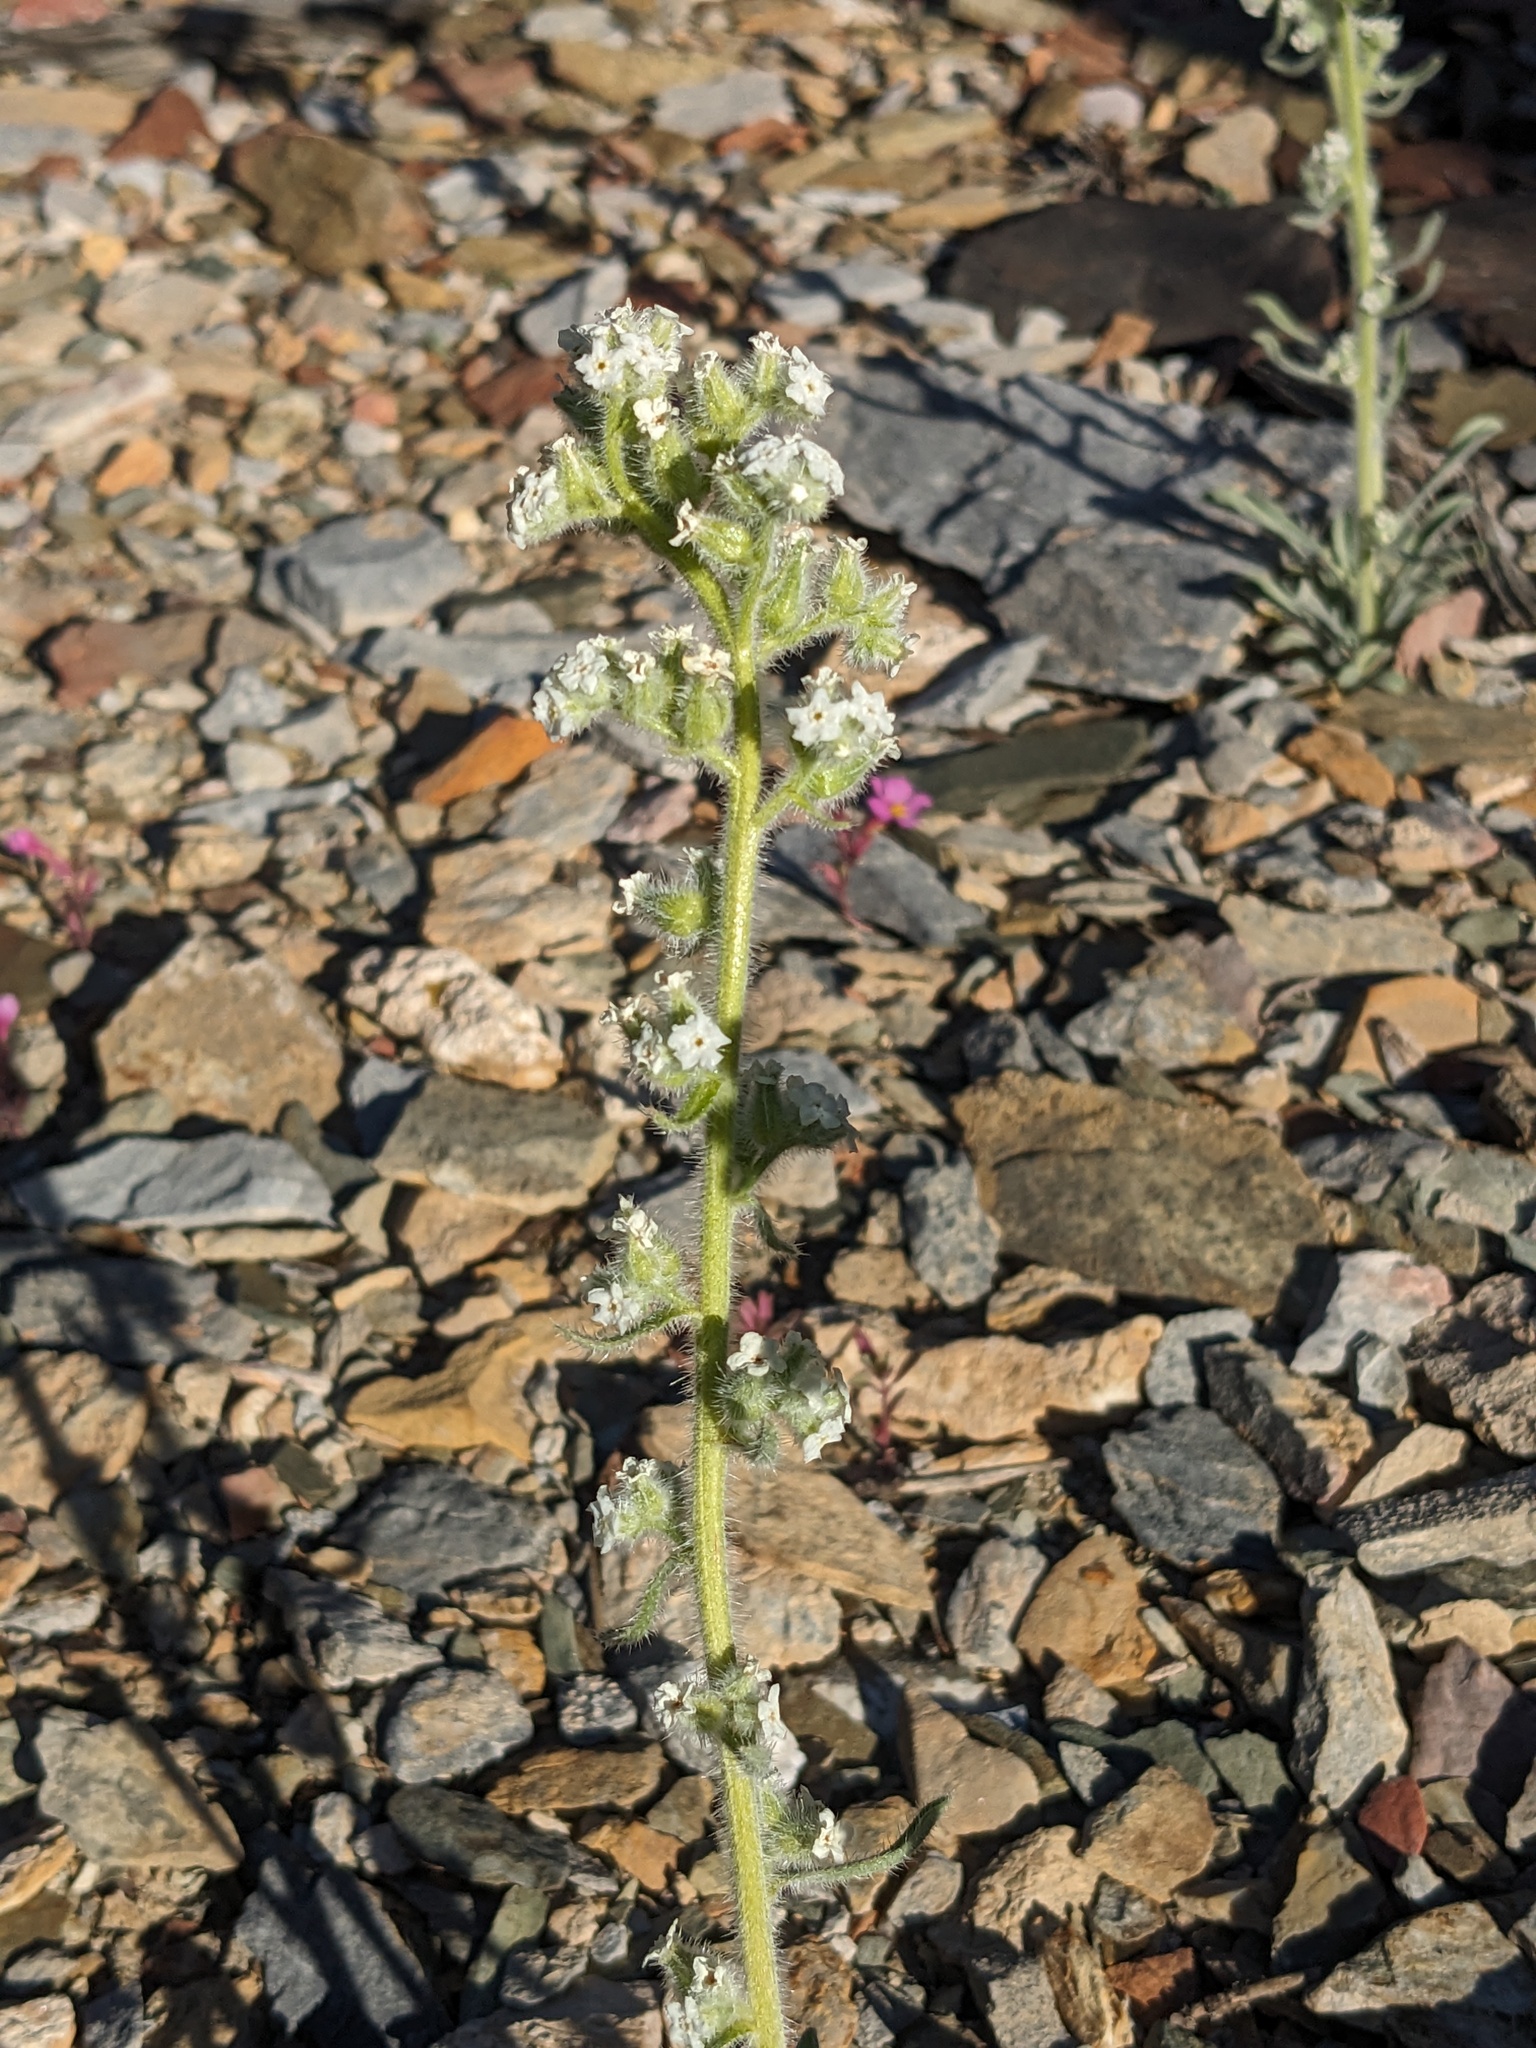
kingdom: Plantae
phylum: Tracheophyta
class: Magnoliopsida
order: Boraginales
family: Boraginaceae
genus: Oreocarya
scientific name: Oreocarya hoffmannii
